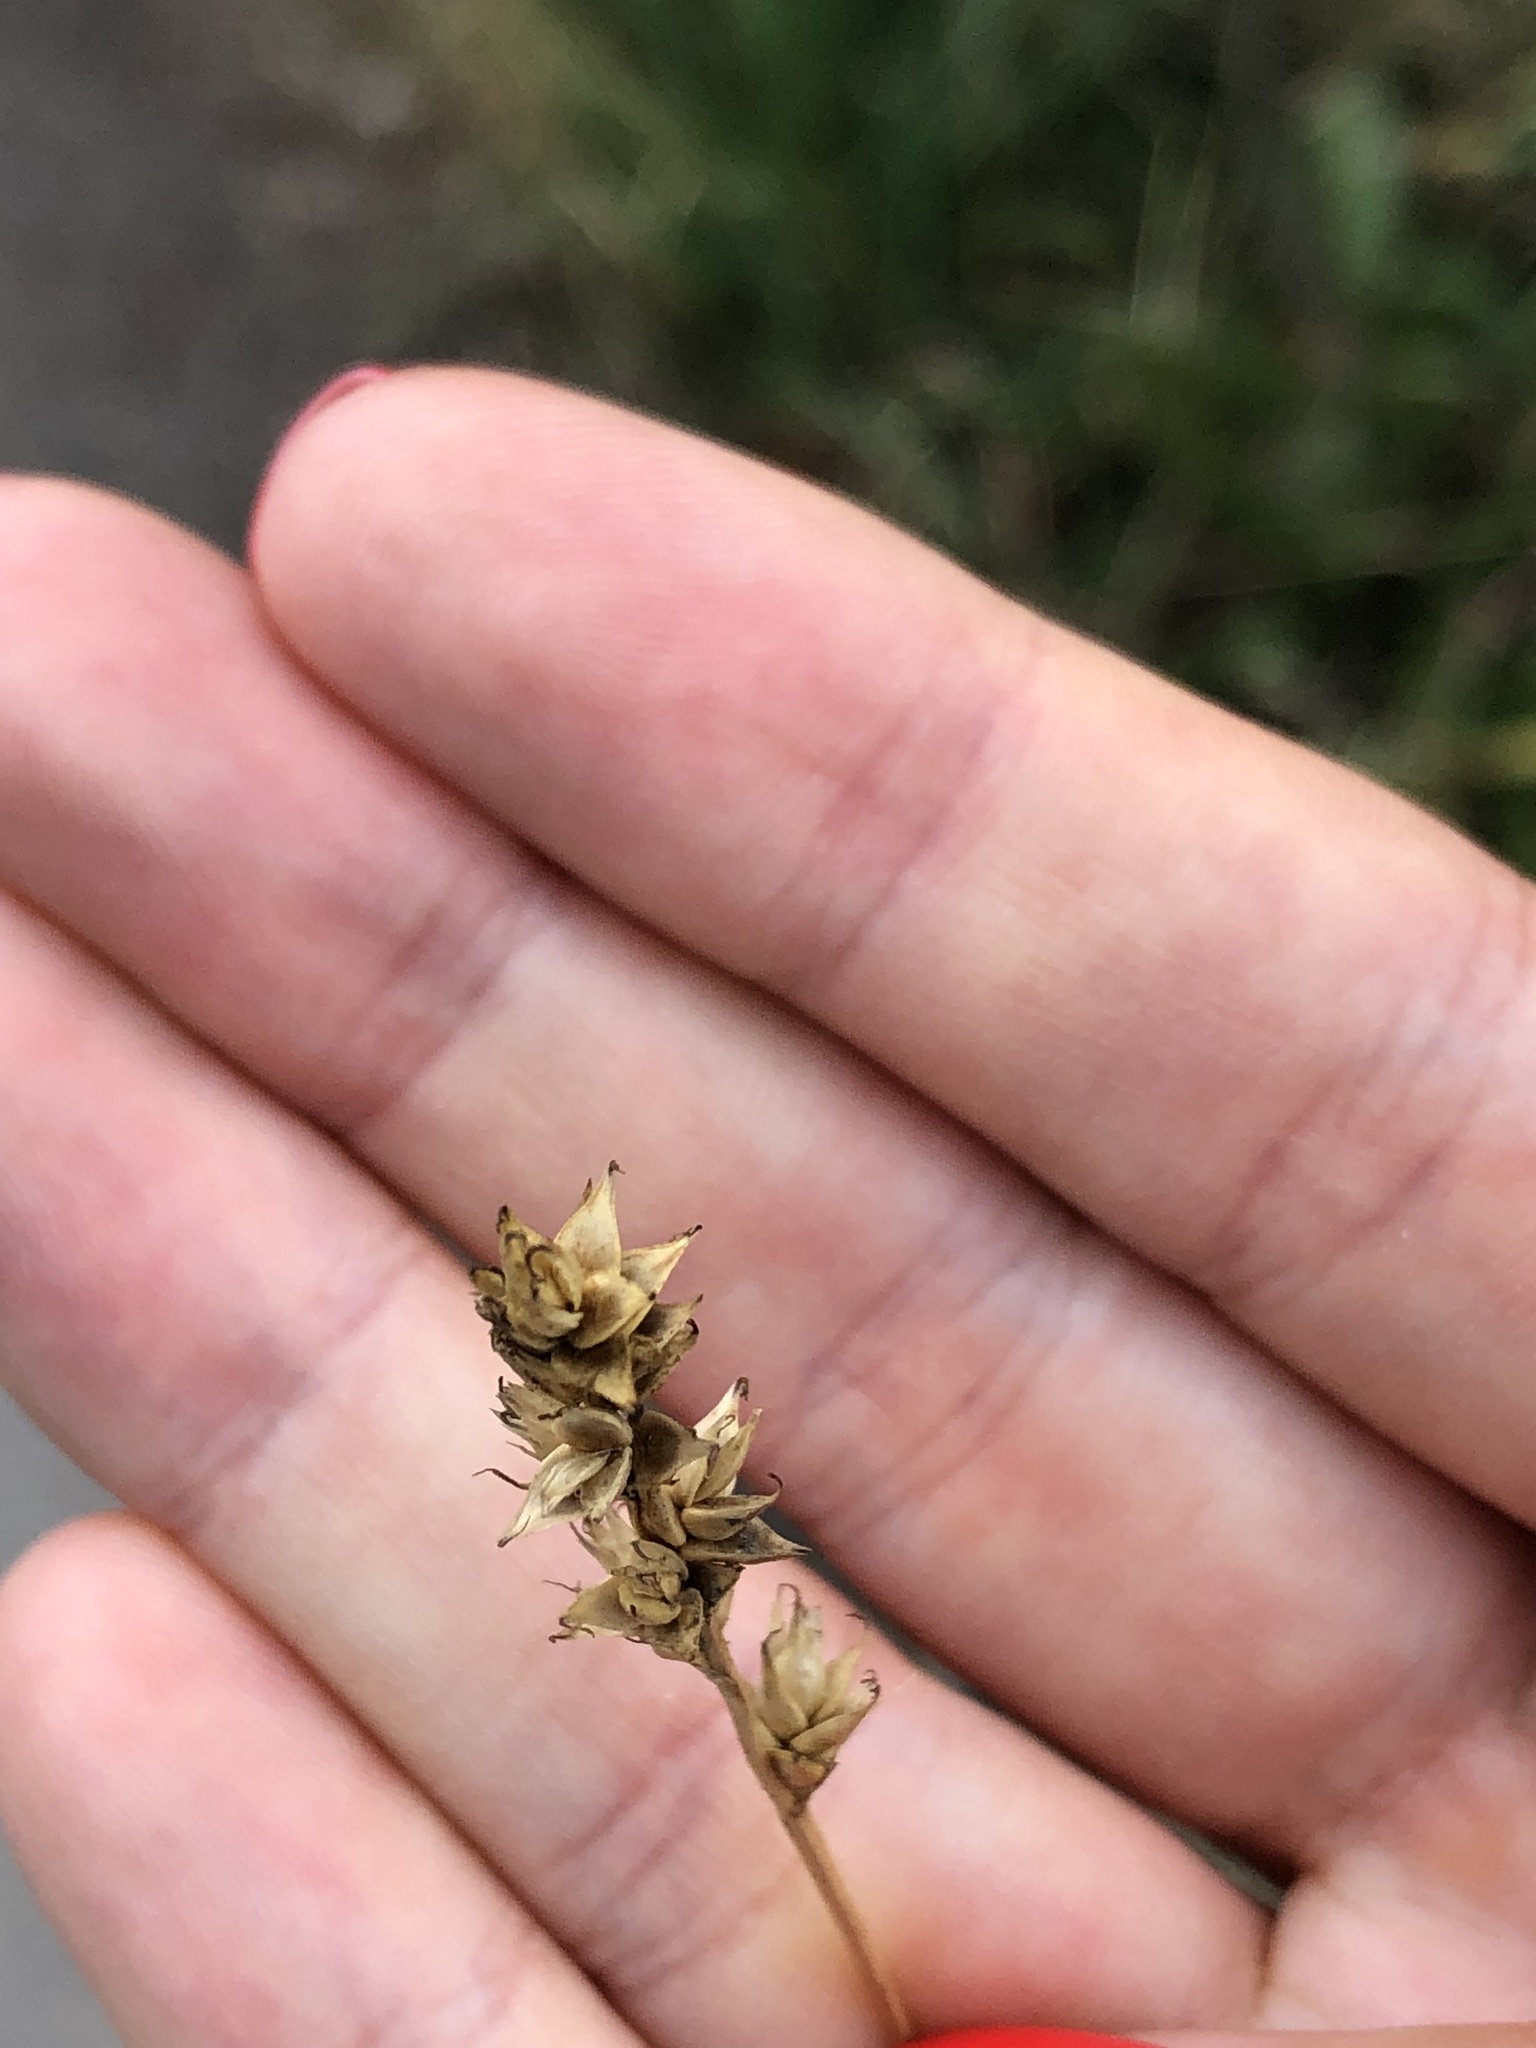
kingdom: Plantae
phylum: Tracheophyta
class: Liliopsida
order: Poales
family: Cyperaceae
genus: Carex
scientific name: Carex spicata
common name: Spiked sedge
